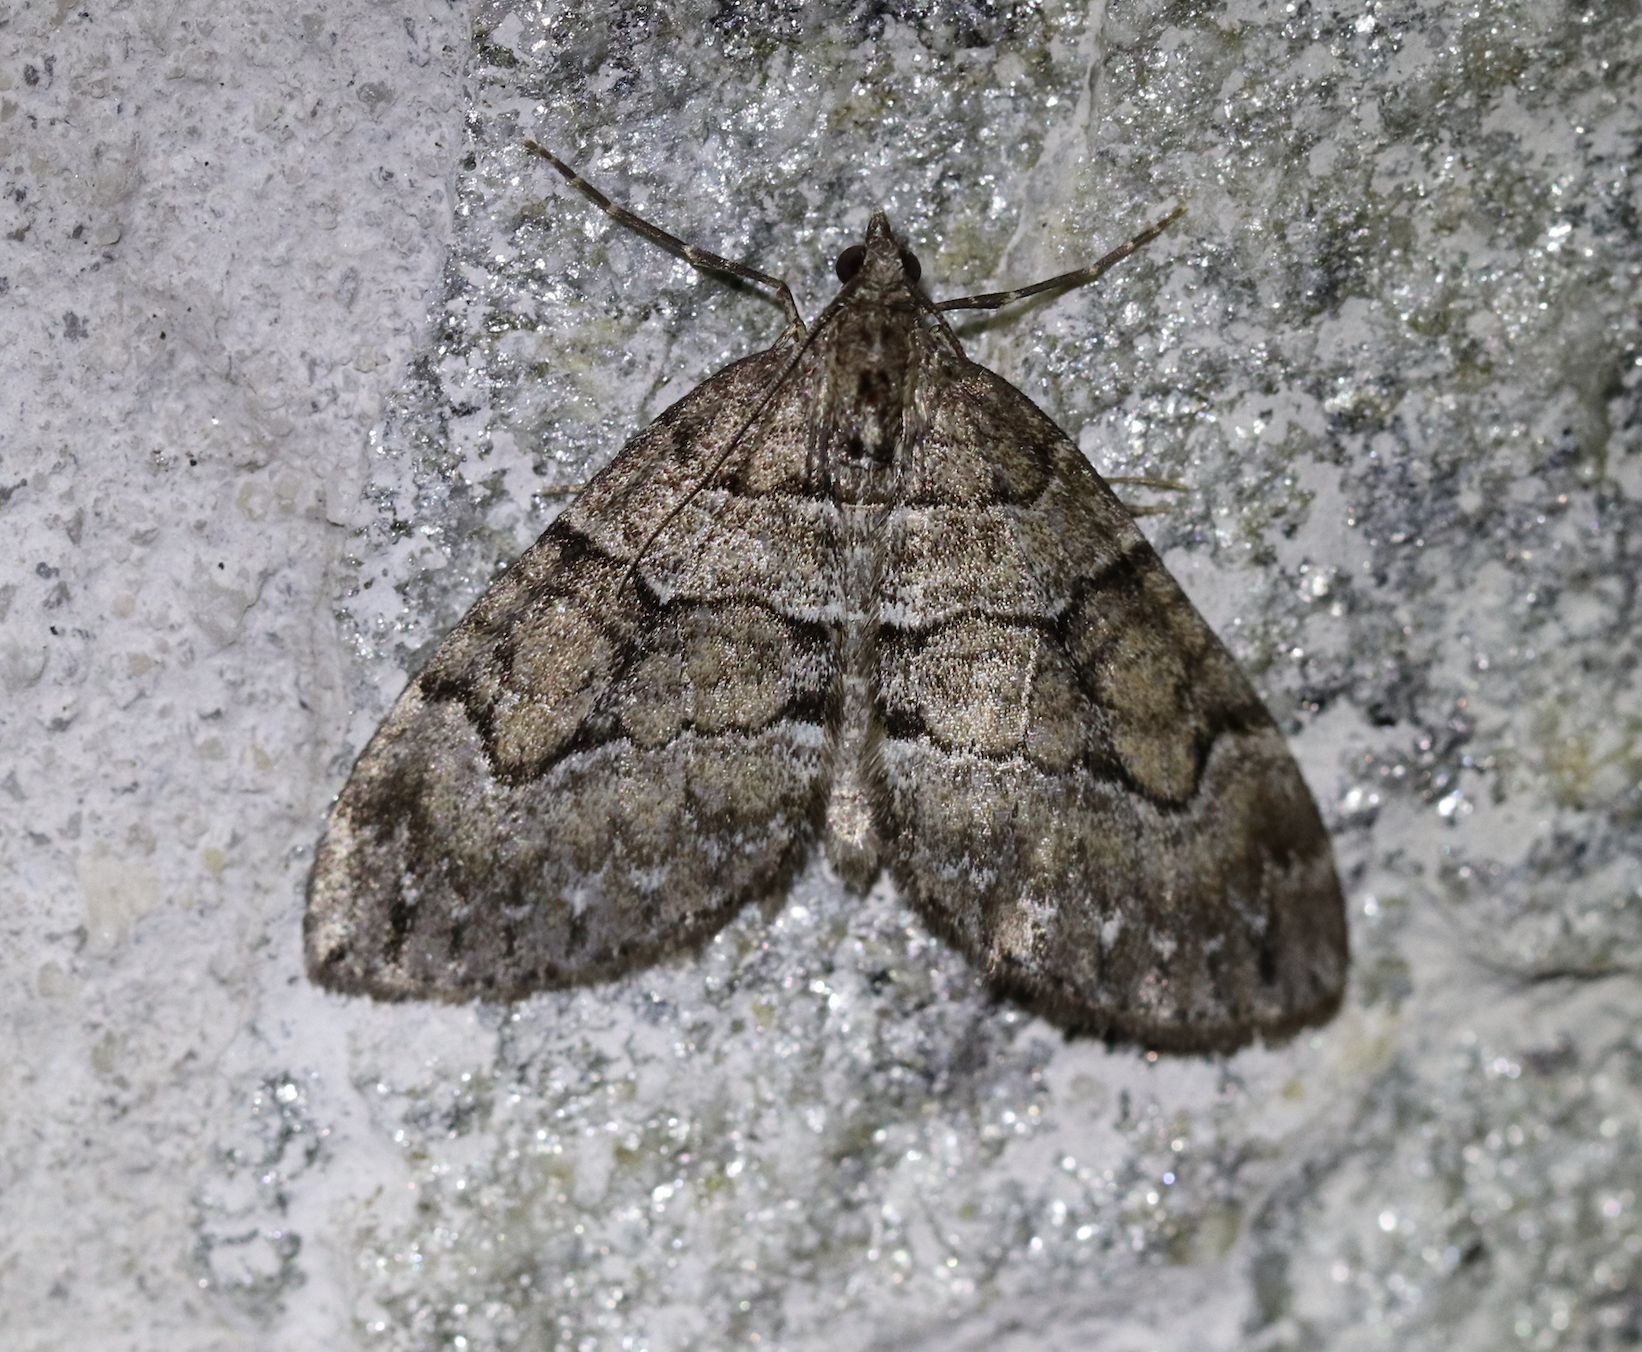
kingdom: Animalia
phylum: Arthropoda
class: Insecta
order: Lepidoptera
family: Geometridae
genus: Thera
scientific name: Thera cognata
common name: Chestnut-coloured carpet
